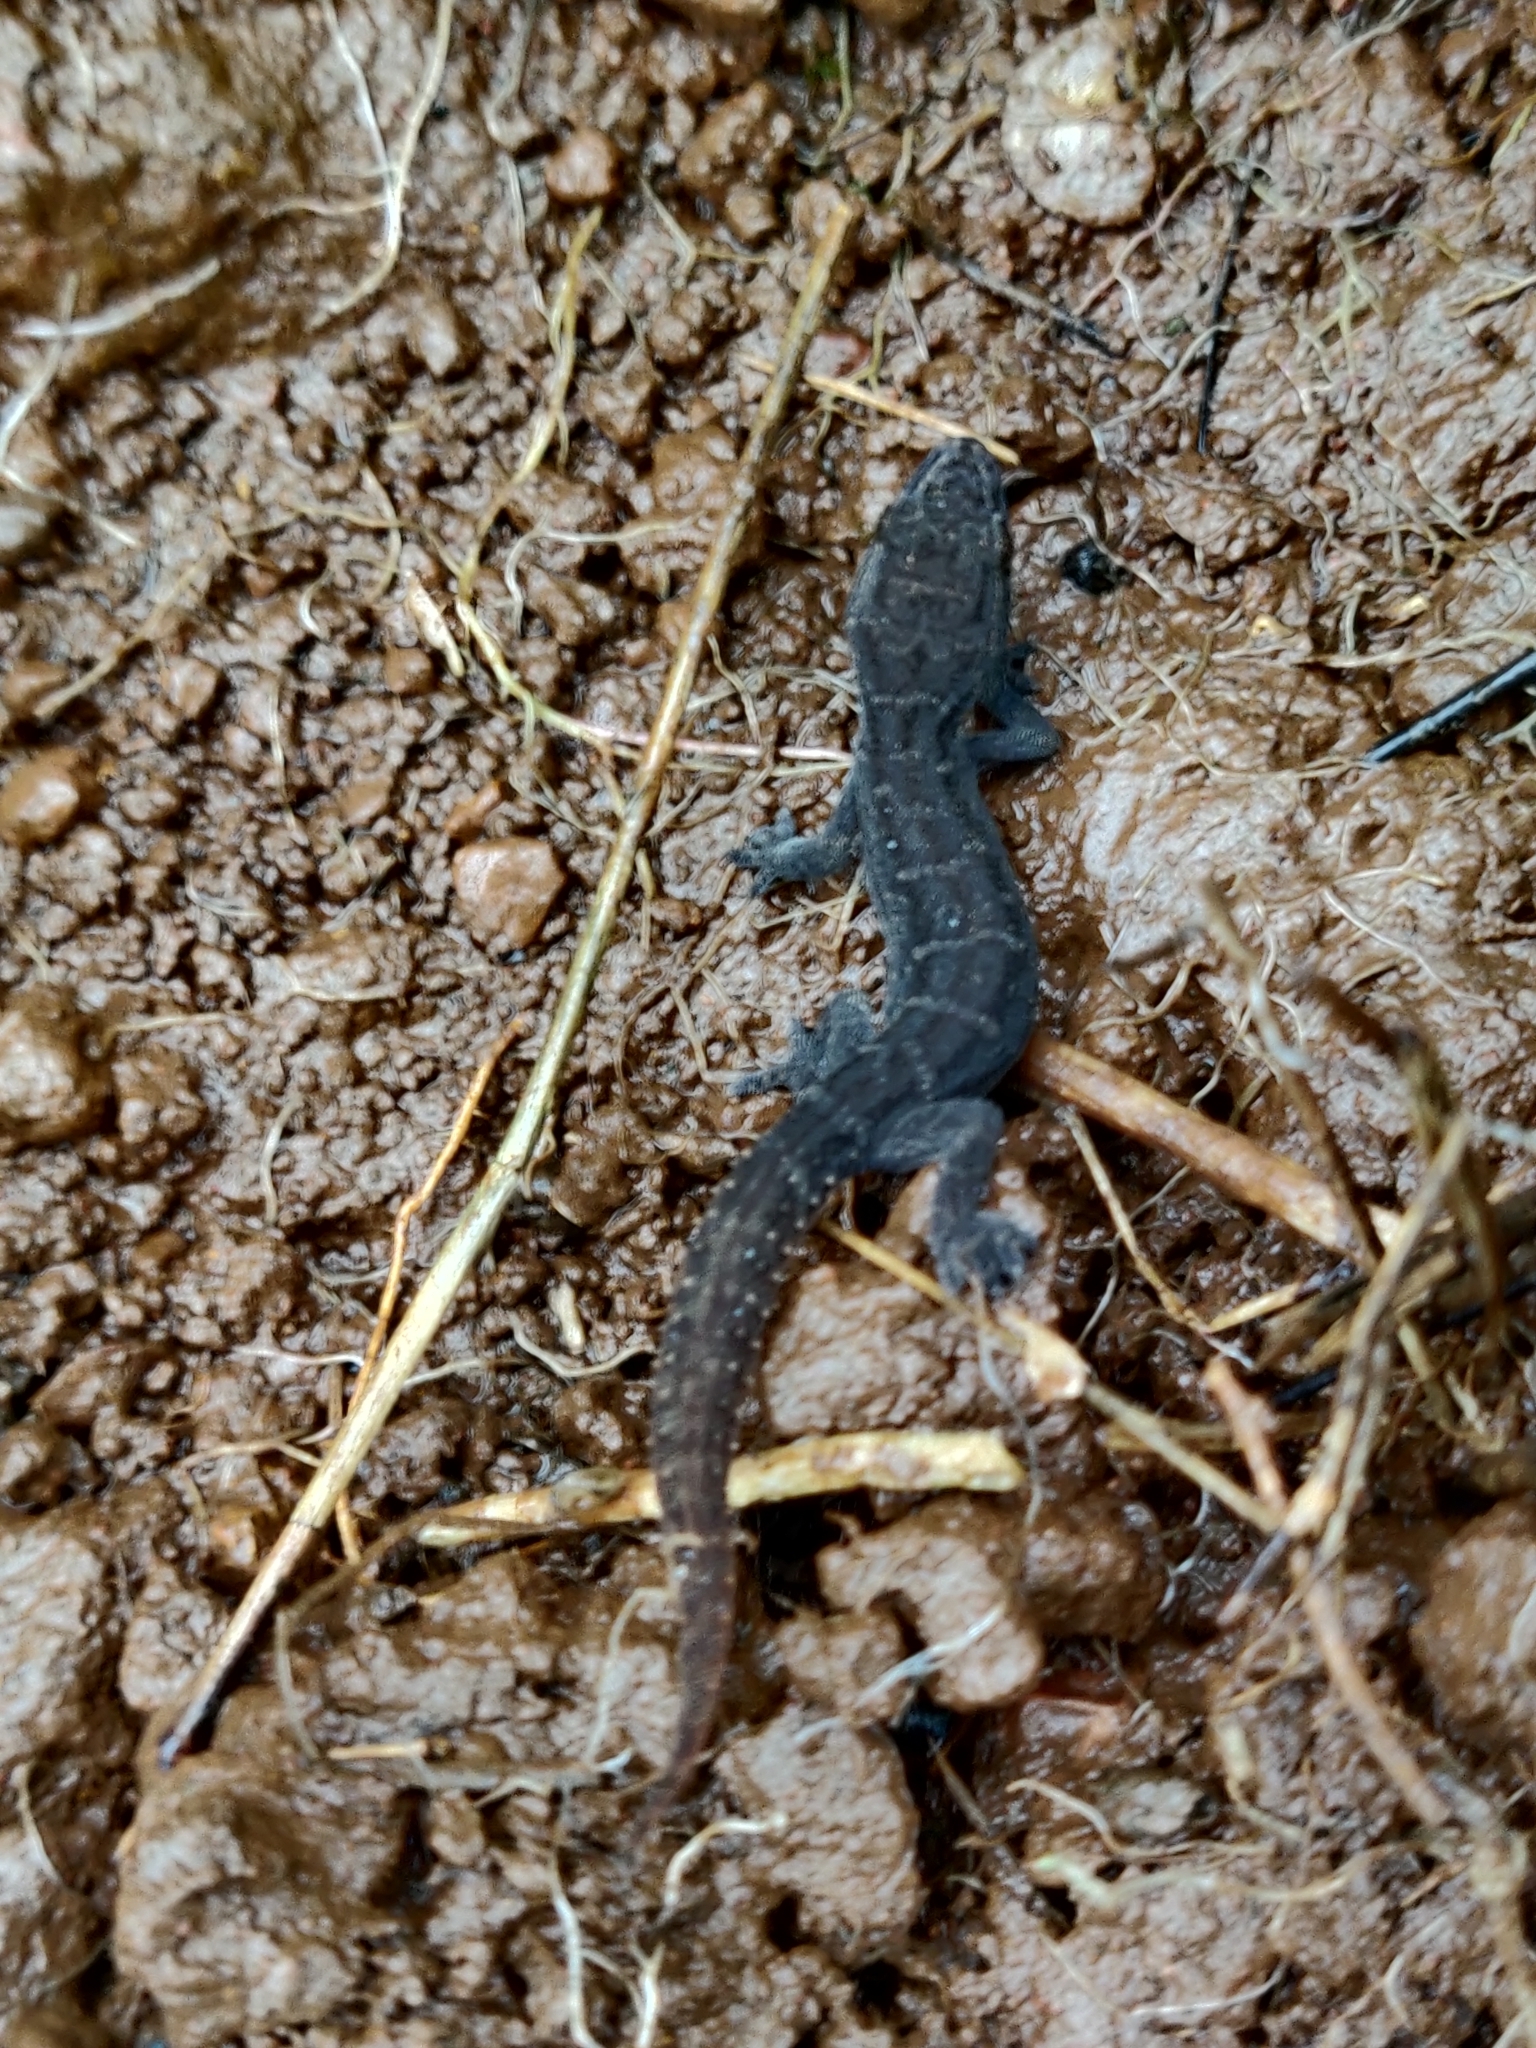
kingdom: Animalia
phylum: Chordata
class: Squamata
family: Gekkonidae
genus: Hemidactylus
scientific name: Hemidactylus albofasciatus
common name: White-striped viper gecko
